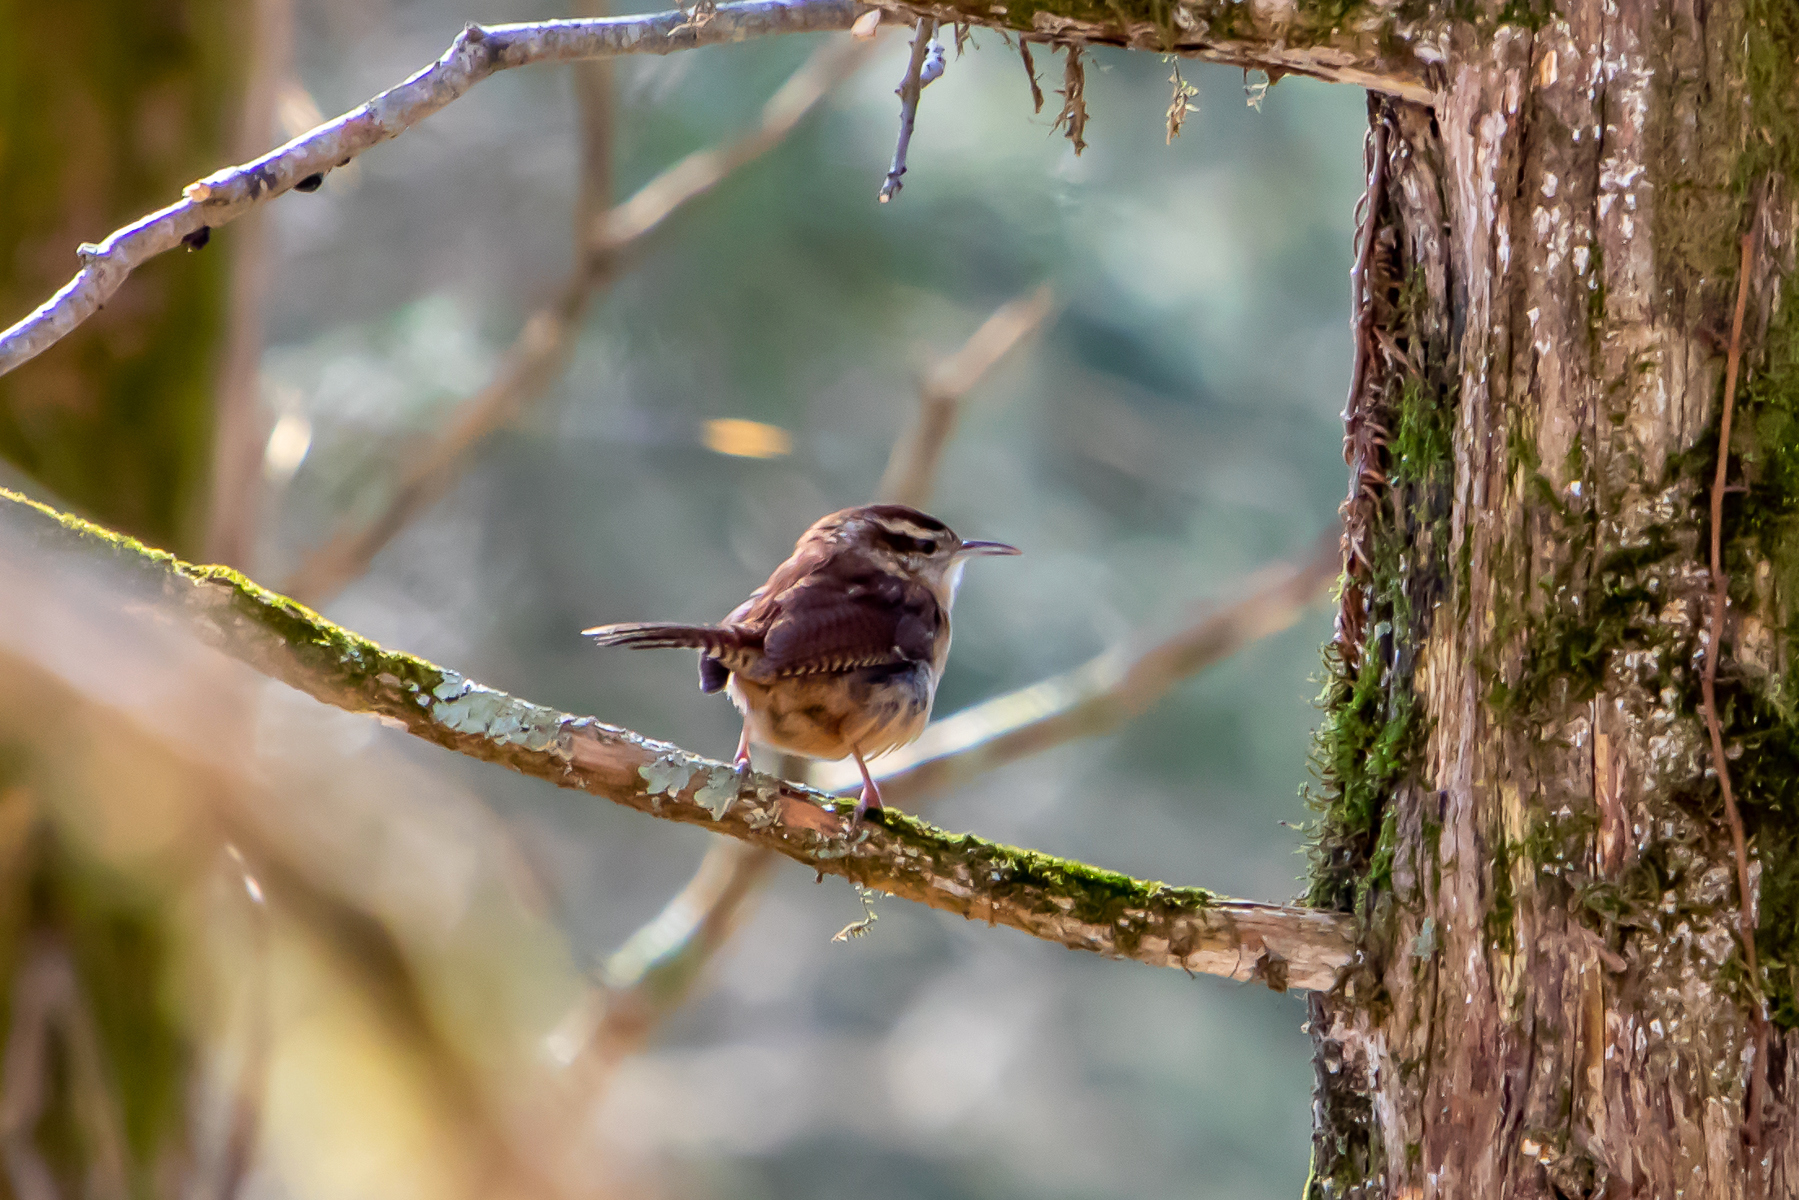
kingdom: Animalia
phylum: Chordata
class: Aves
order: Passeriformes
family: Troglodytidae
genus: Thryothorus
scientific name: Thryothorus ludovicianus
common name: Carolina wren
